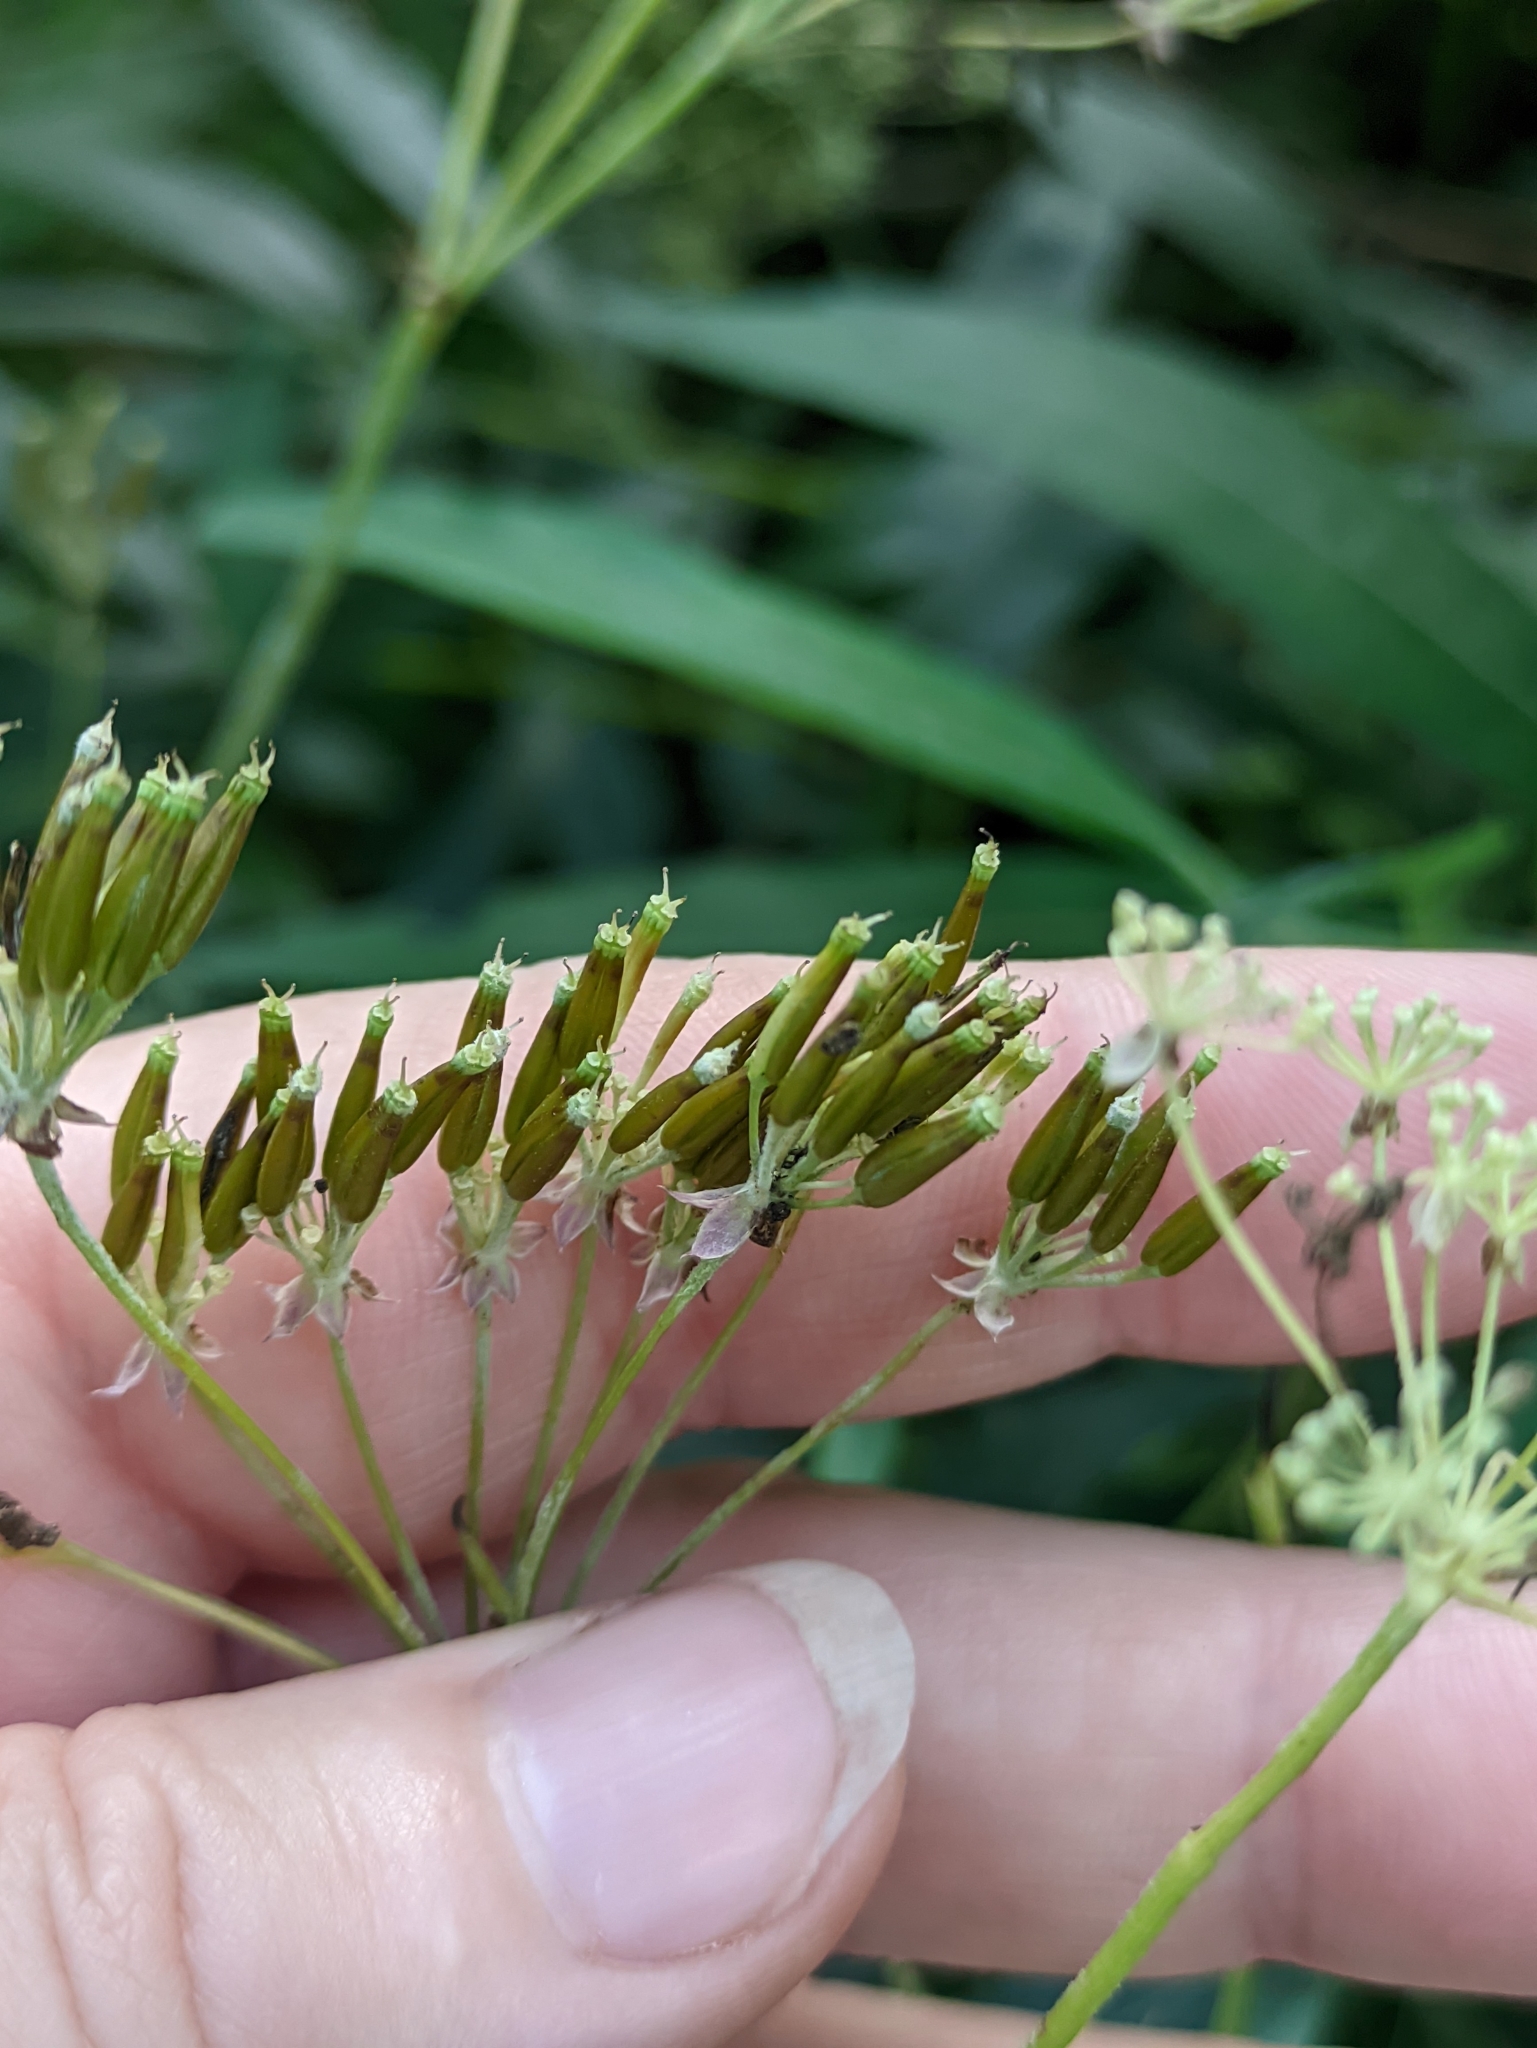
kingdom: Plantae
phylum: Tracheophyta
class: Magnoliopsida
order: Apiales
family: Apiaceae
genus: Anthriscus
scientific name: Anthriscus sylvestris
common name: Cow parsley
